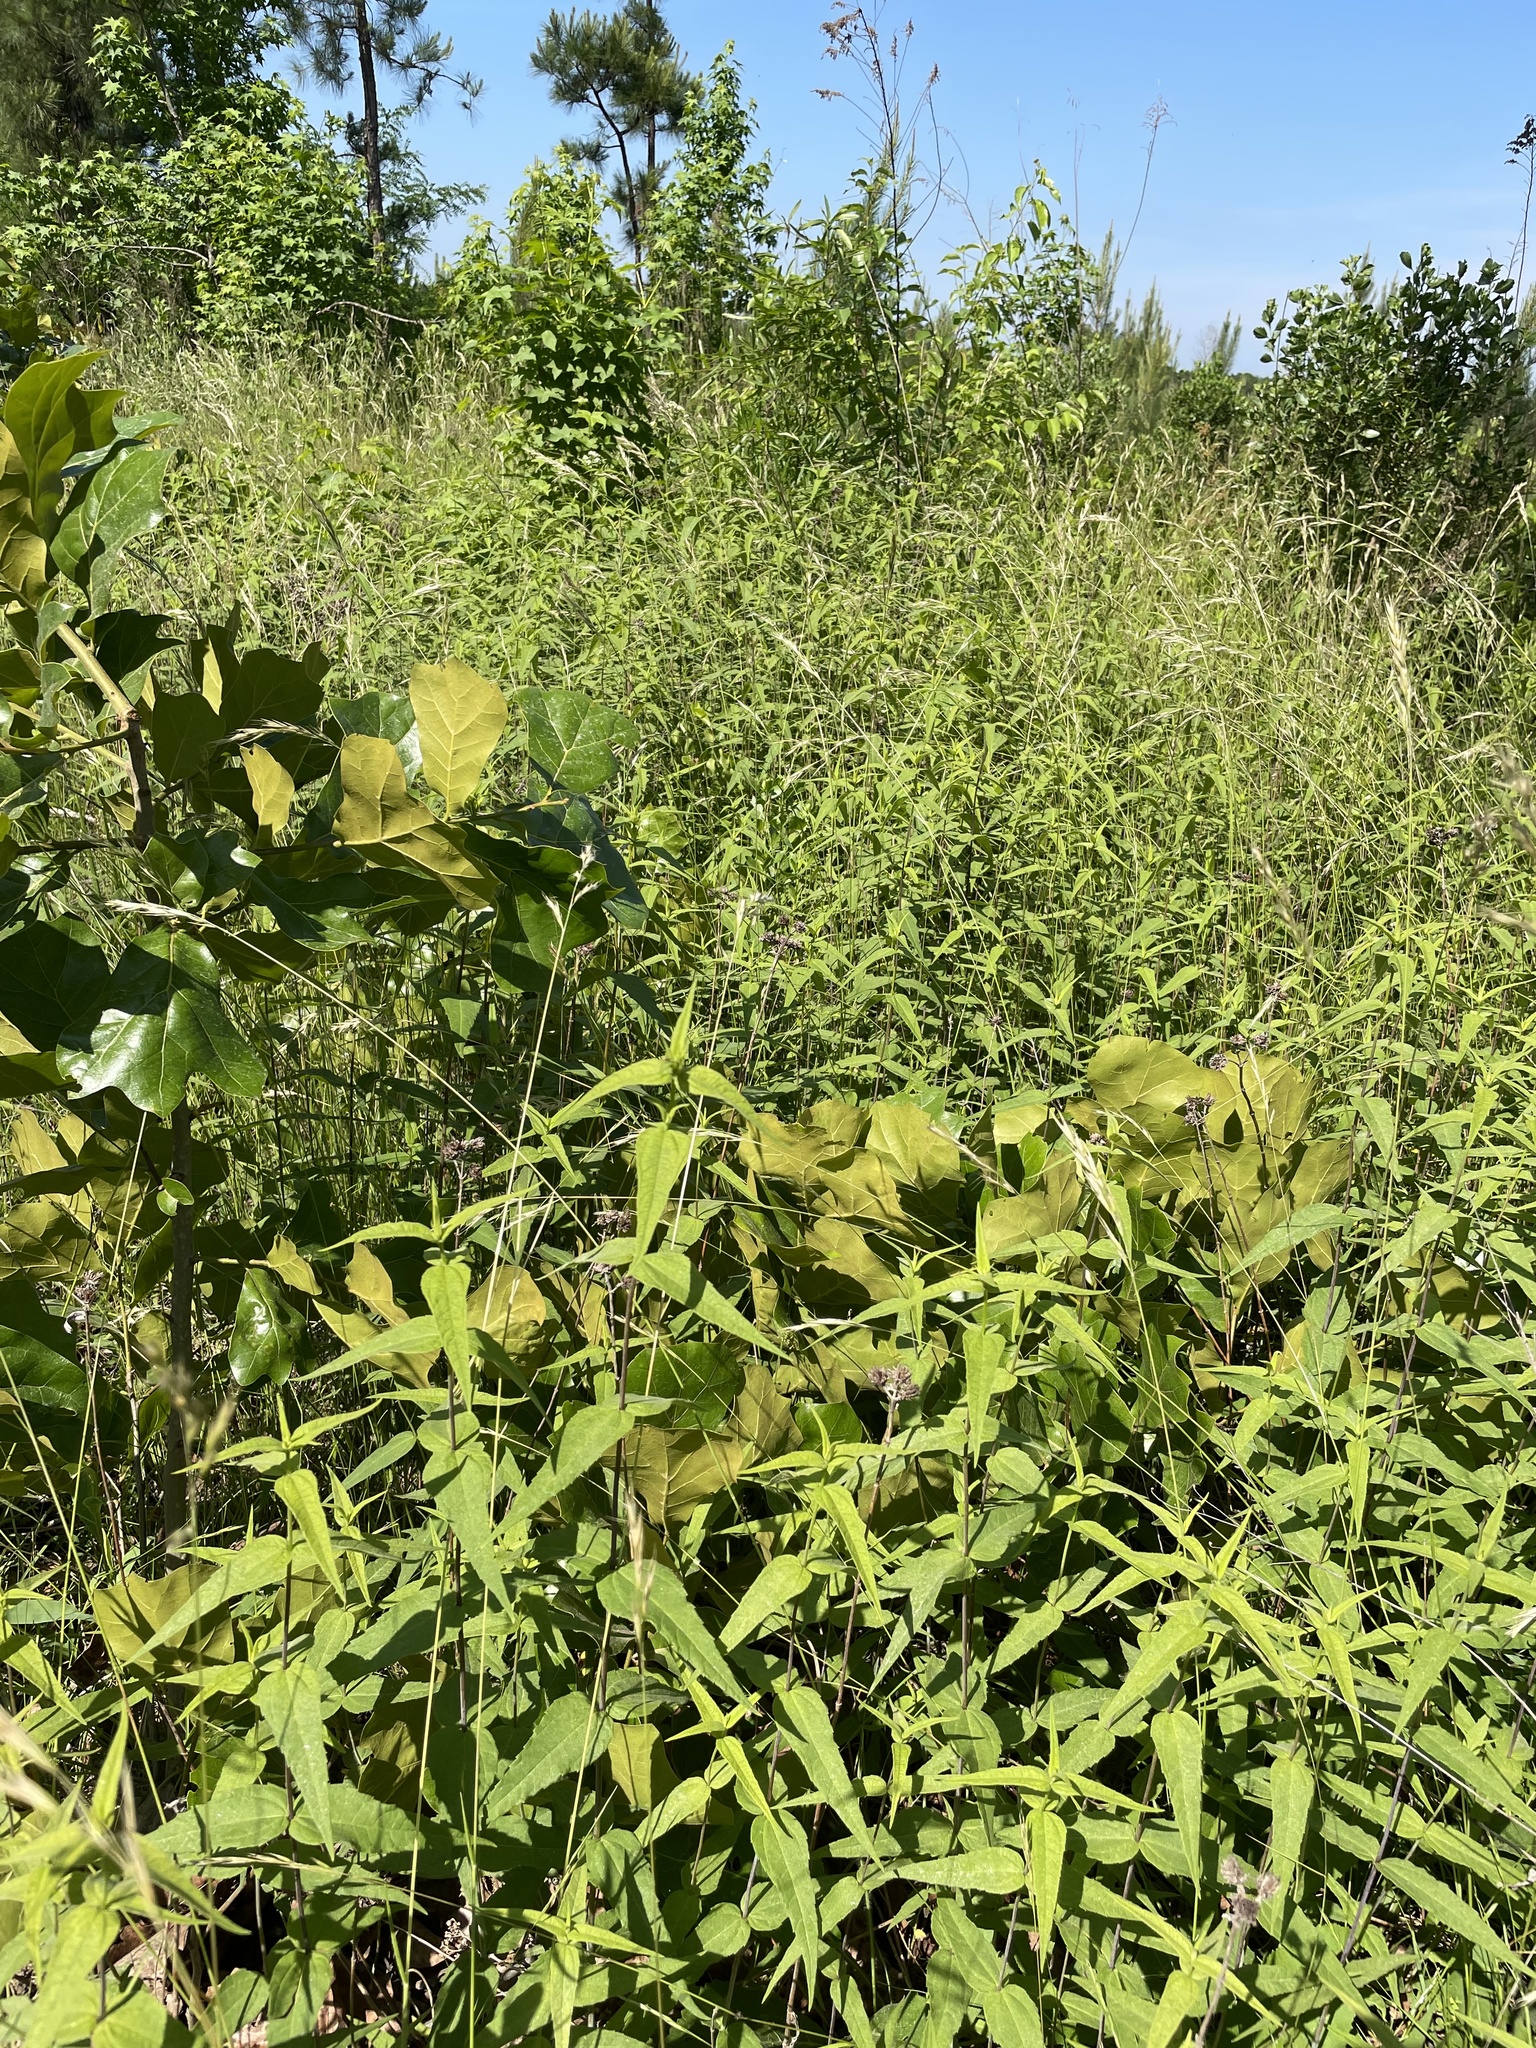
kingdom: Plantae
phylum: Tracheophyta
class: Magnoliopsida
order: Asterales
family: Asteraceae
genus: Helianthus
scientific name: Helianthus divaricatus
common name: Divergent sunflower
